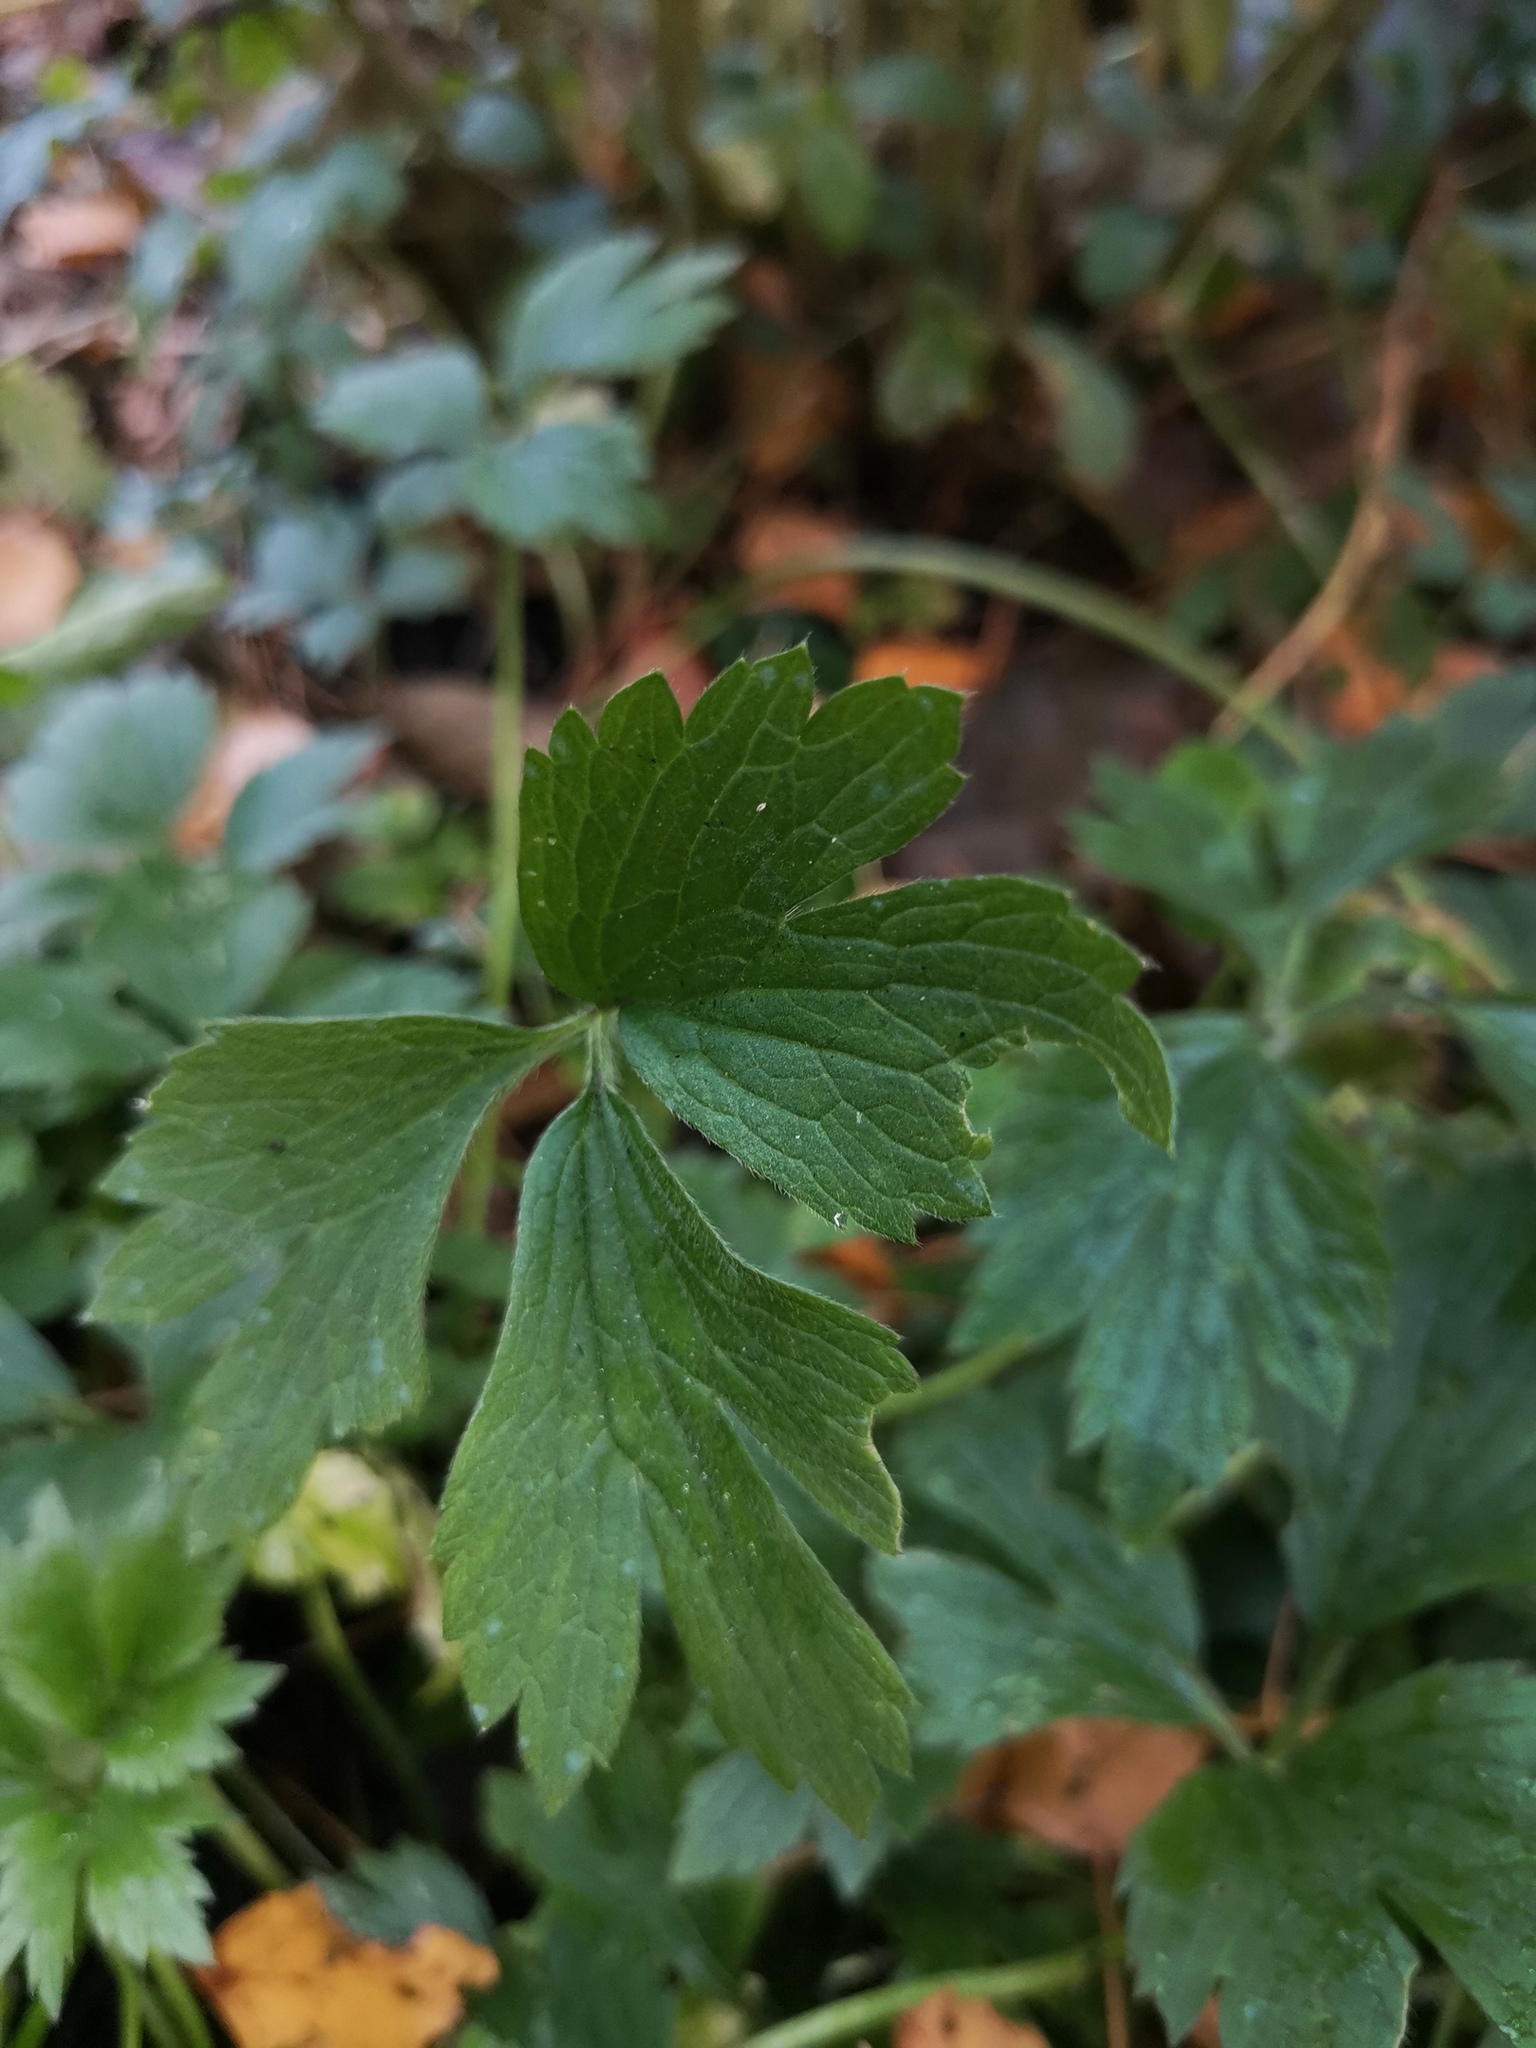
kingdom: Plantae
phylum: Tracheophyta
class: Magnoliopsida
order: Ranunculales
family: Ranunculaceae
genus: Ranunculus
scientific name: Ranunculus repens
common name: Creeping buttercup
